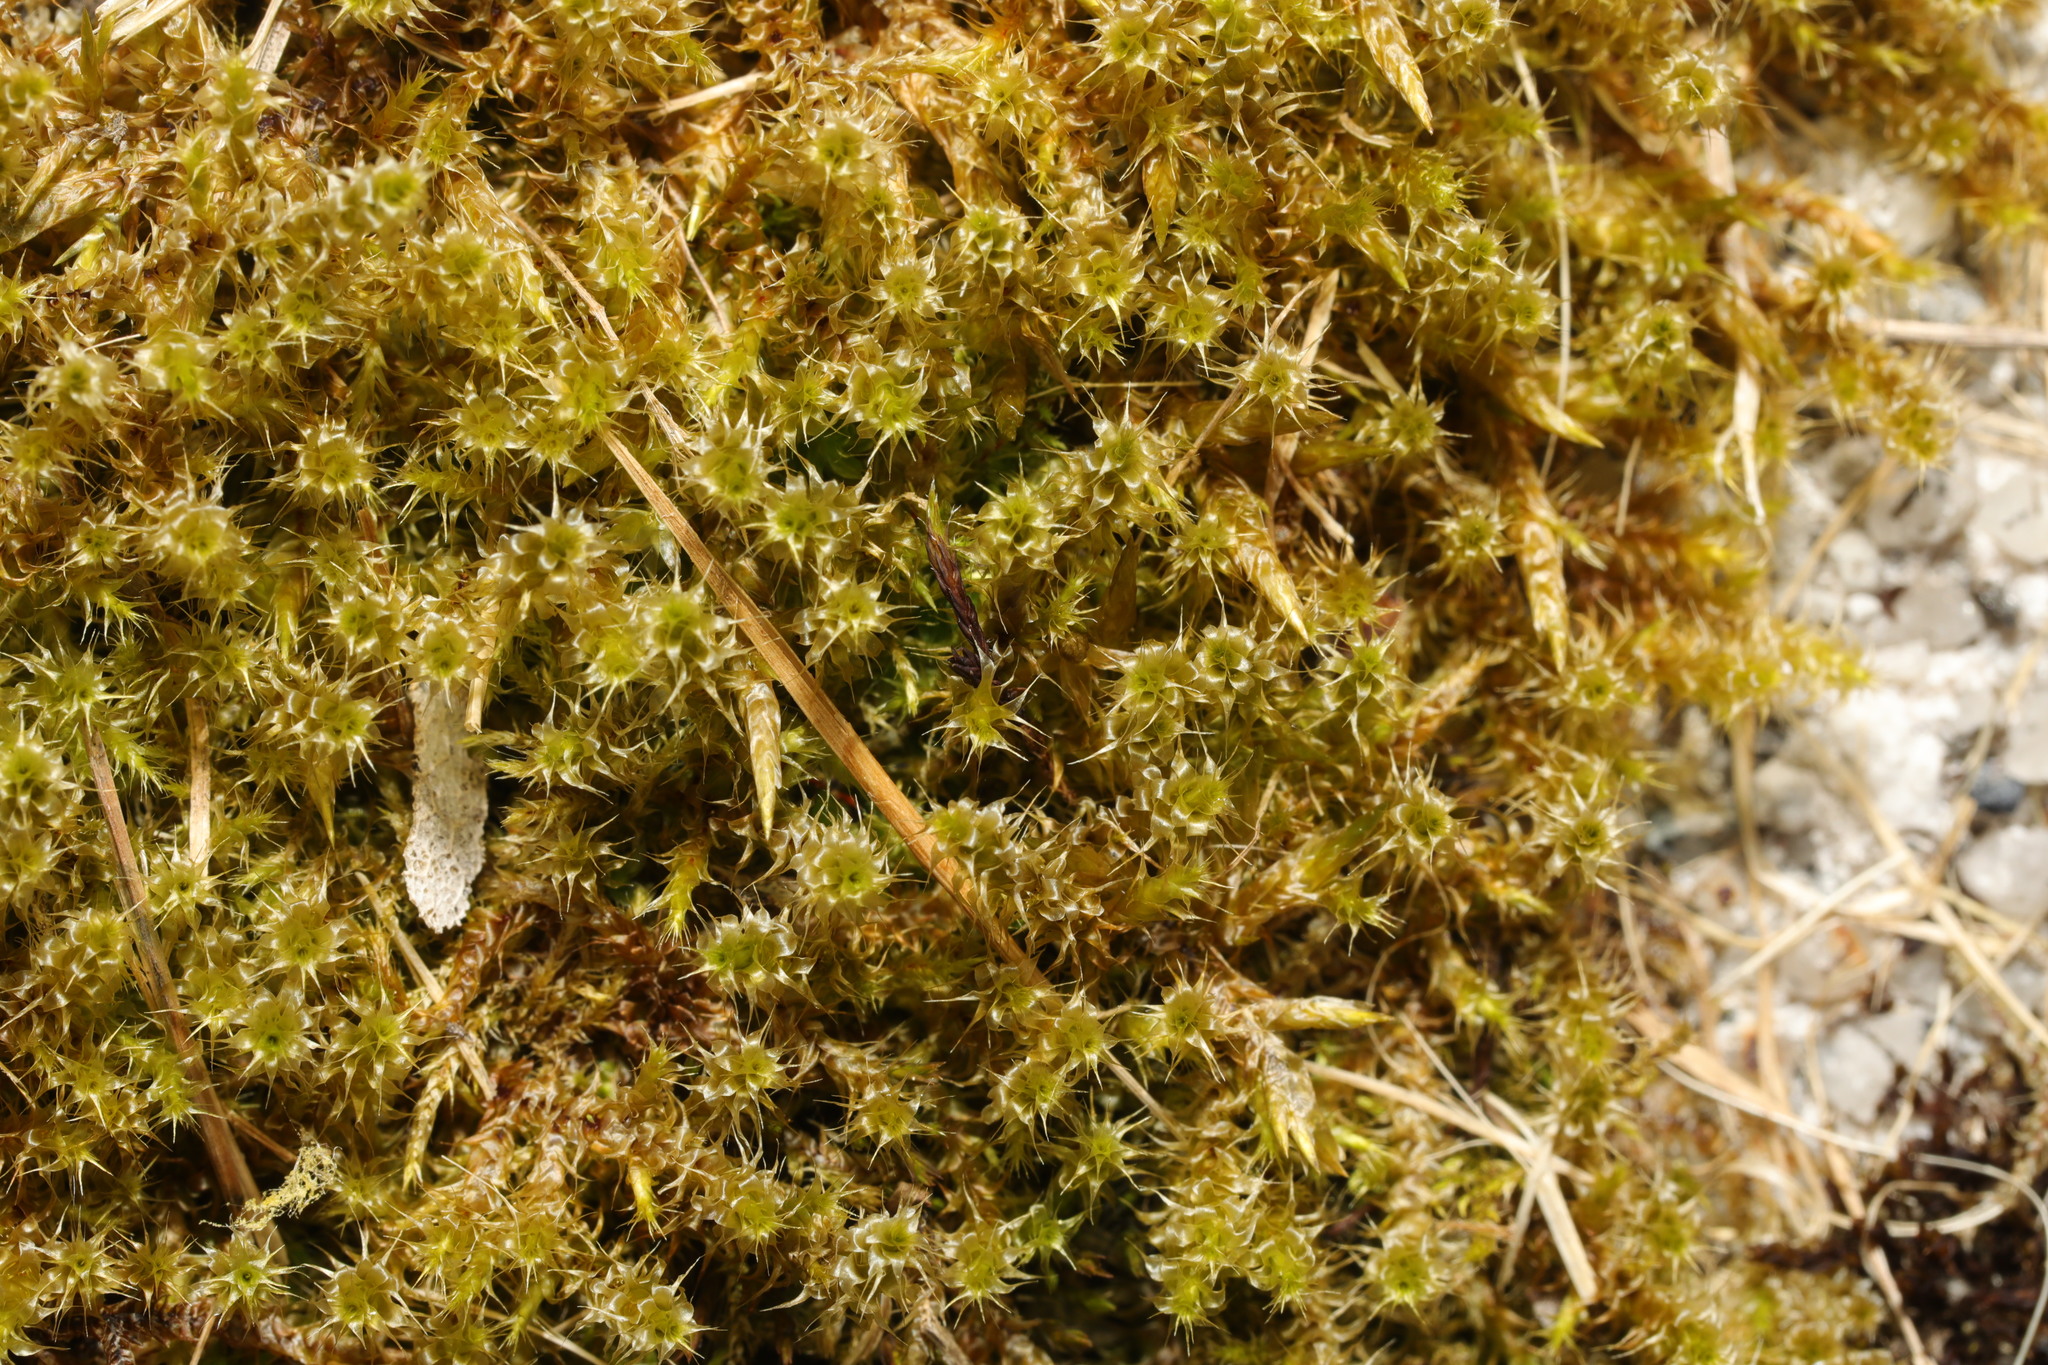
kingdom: Plantae
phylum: Bryophyta
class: Bryopsida
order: Hypnales
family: Hylocomiaceae
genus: Rhytidiadelphus
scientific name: Rhytidiadelphus squarrosus
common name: Springy turf-moss
